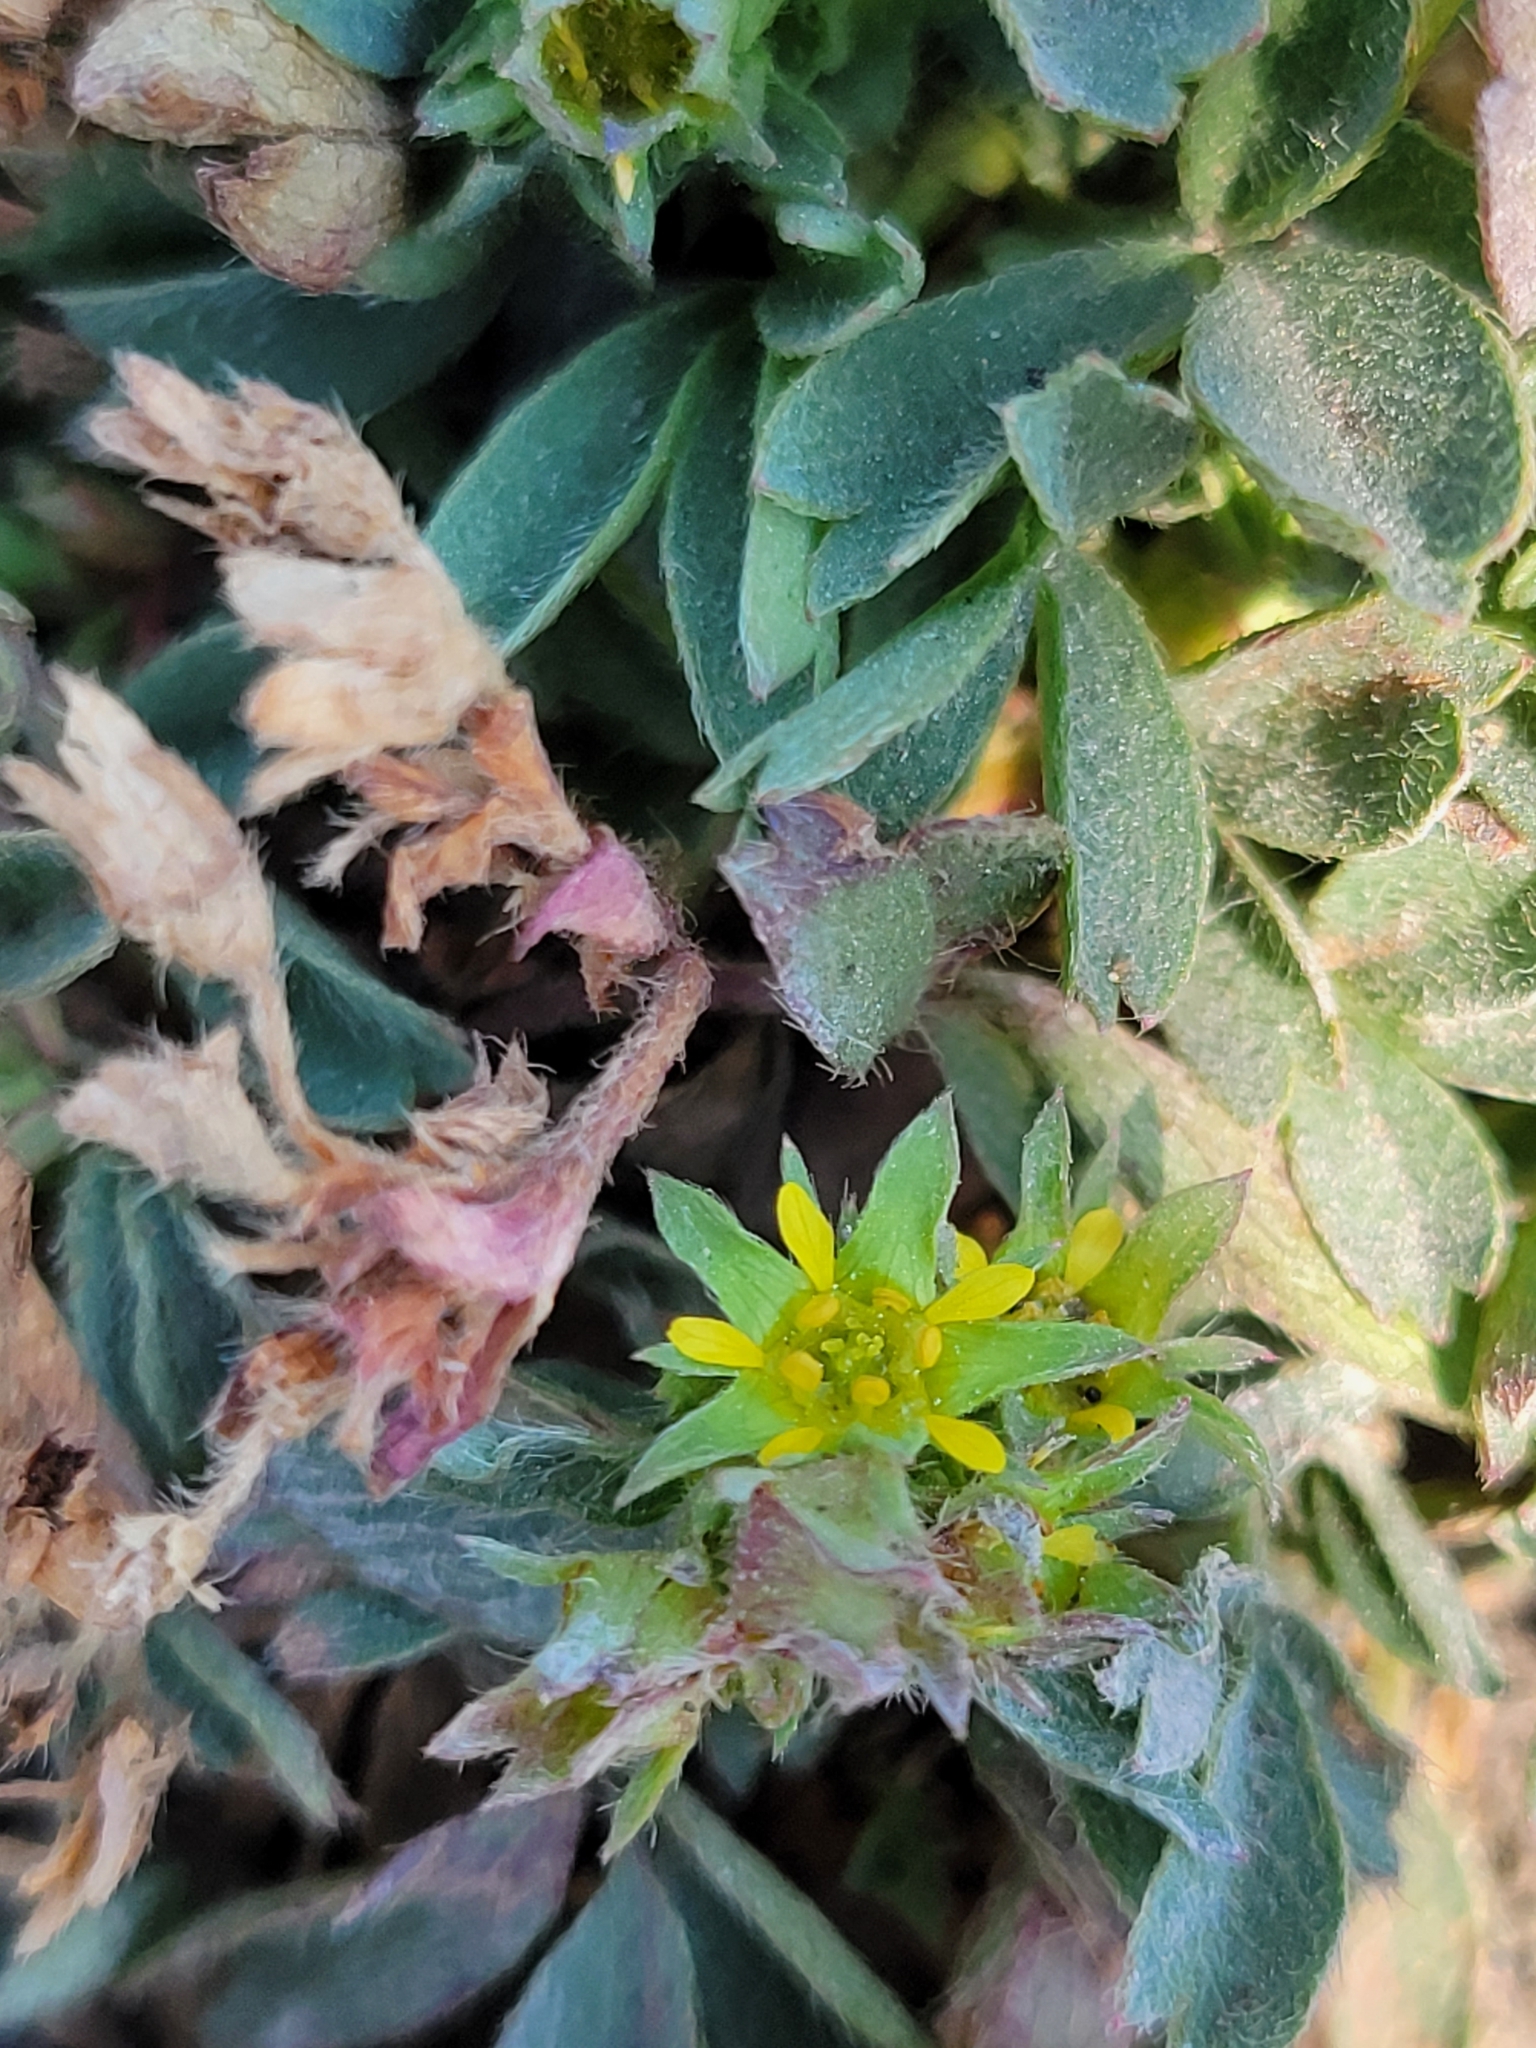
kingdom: Plantae
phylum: Tracheophyta
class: Magnoliopsida
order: Rosales
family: Rosaceae
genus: Sibbaldia
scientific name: Sibbaldia procumbens
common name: Creeping sibbaldia
